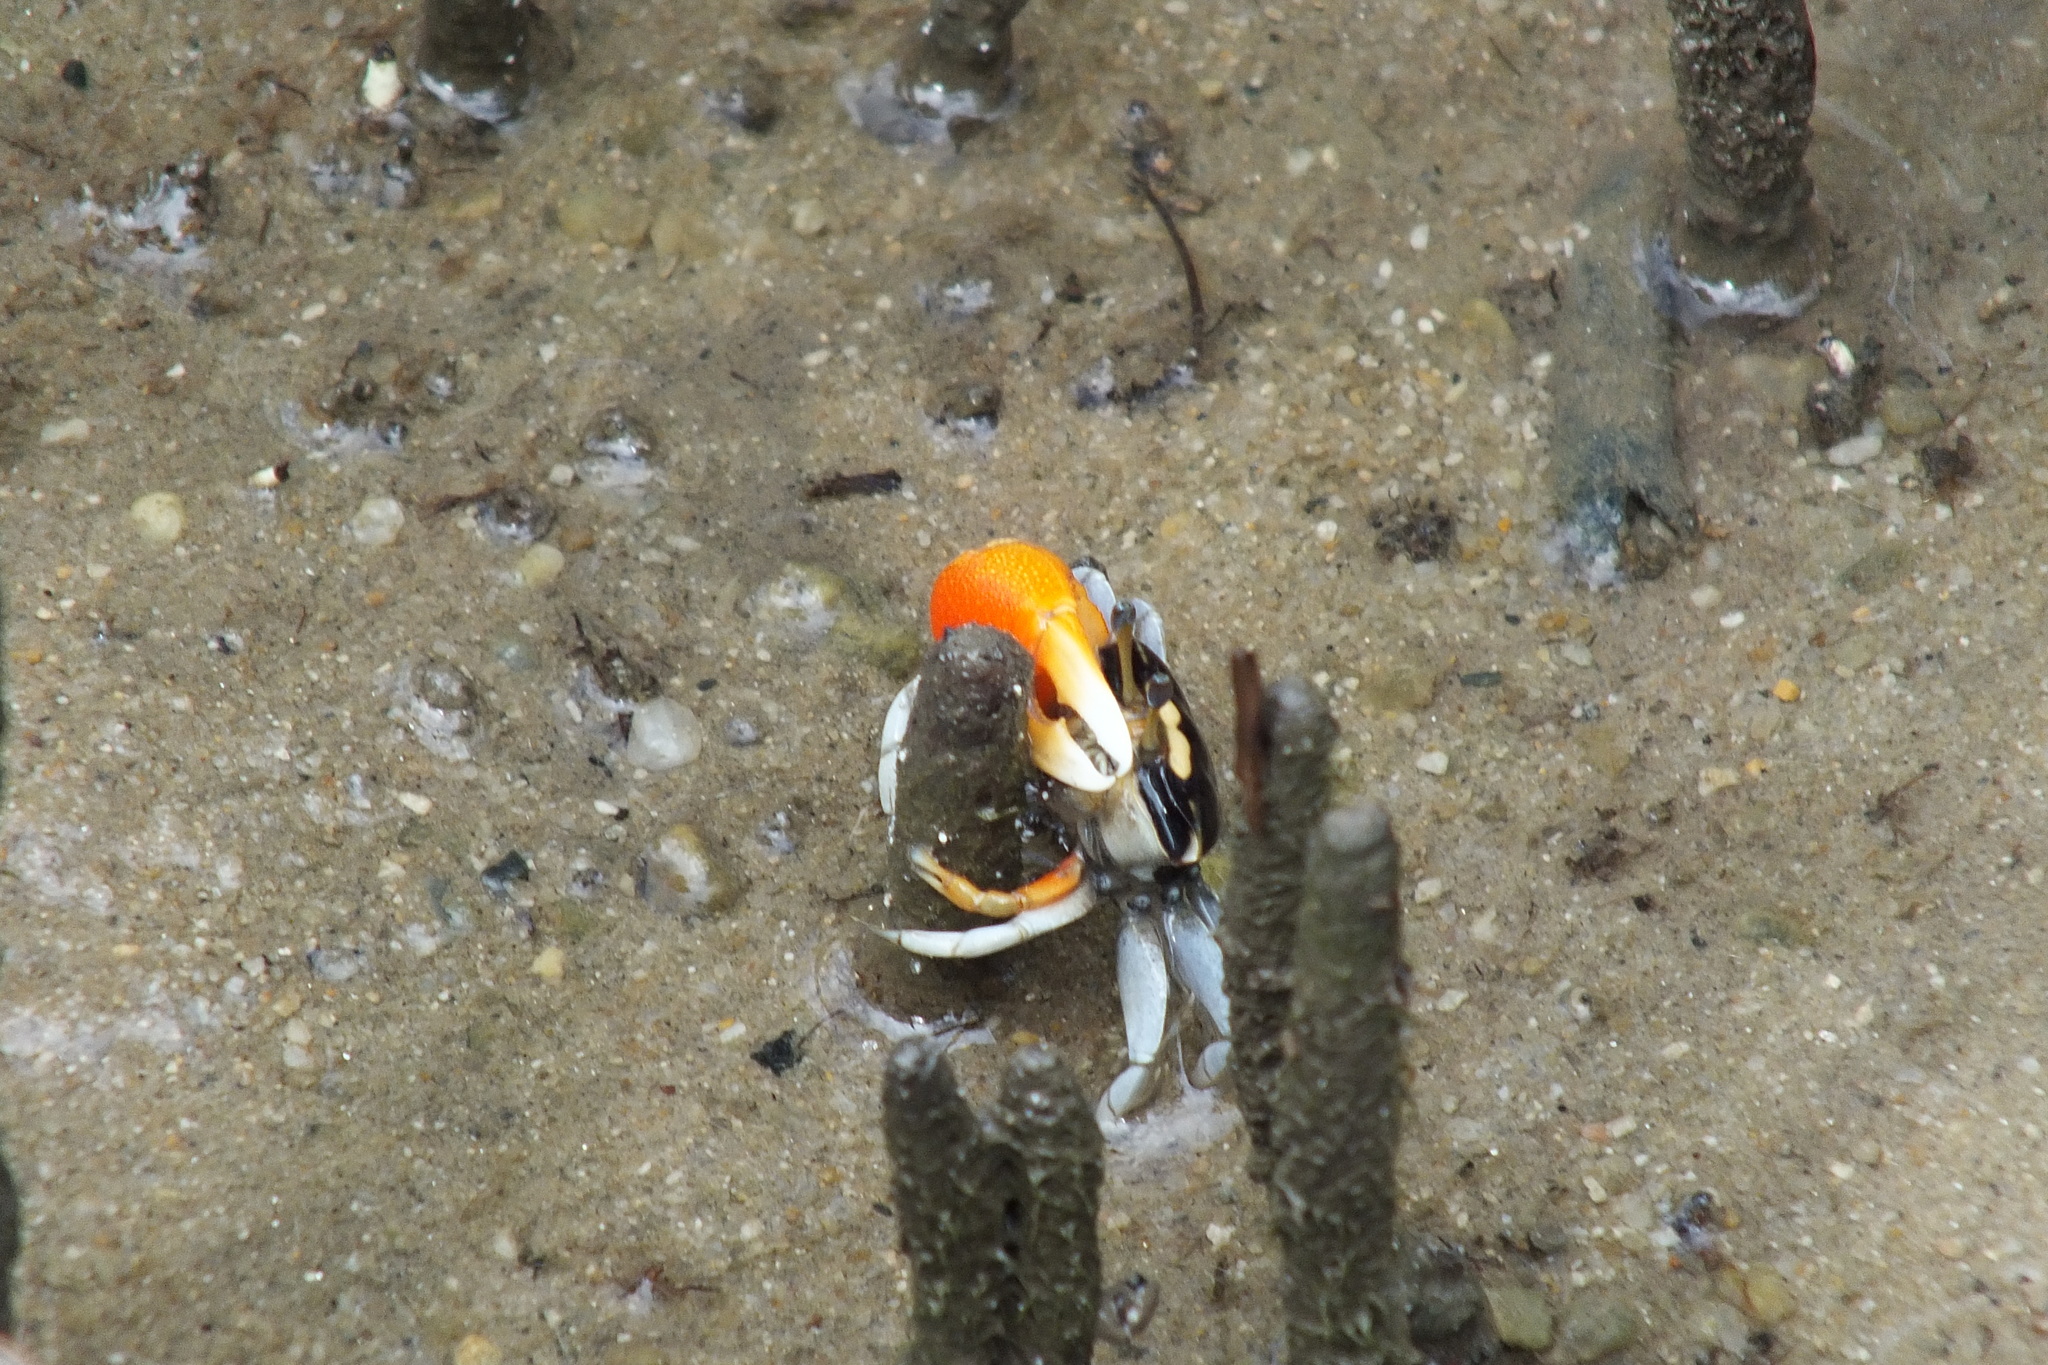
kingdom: Animalia
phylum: Arthropoda
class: Malacostraca
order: Decapoda
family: Ocypodidae
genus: Tubuca
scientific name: Tubuca coarctata
